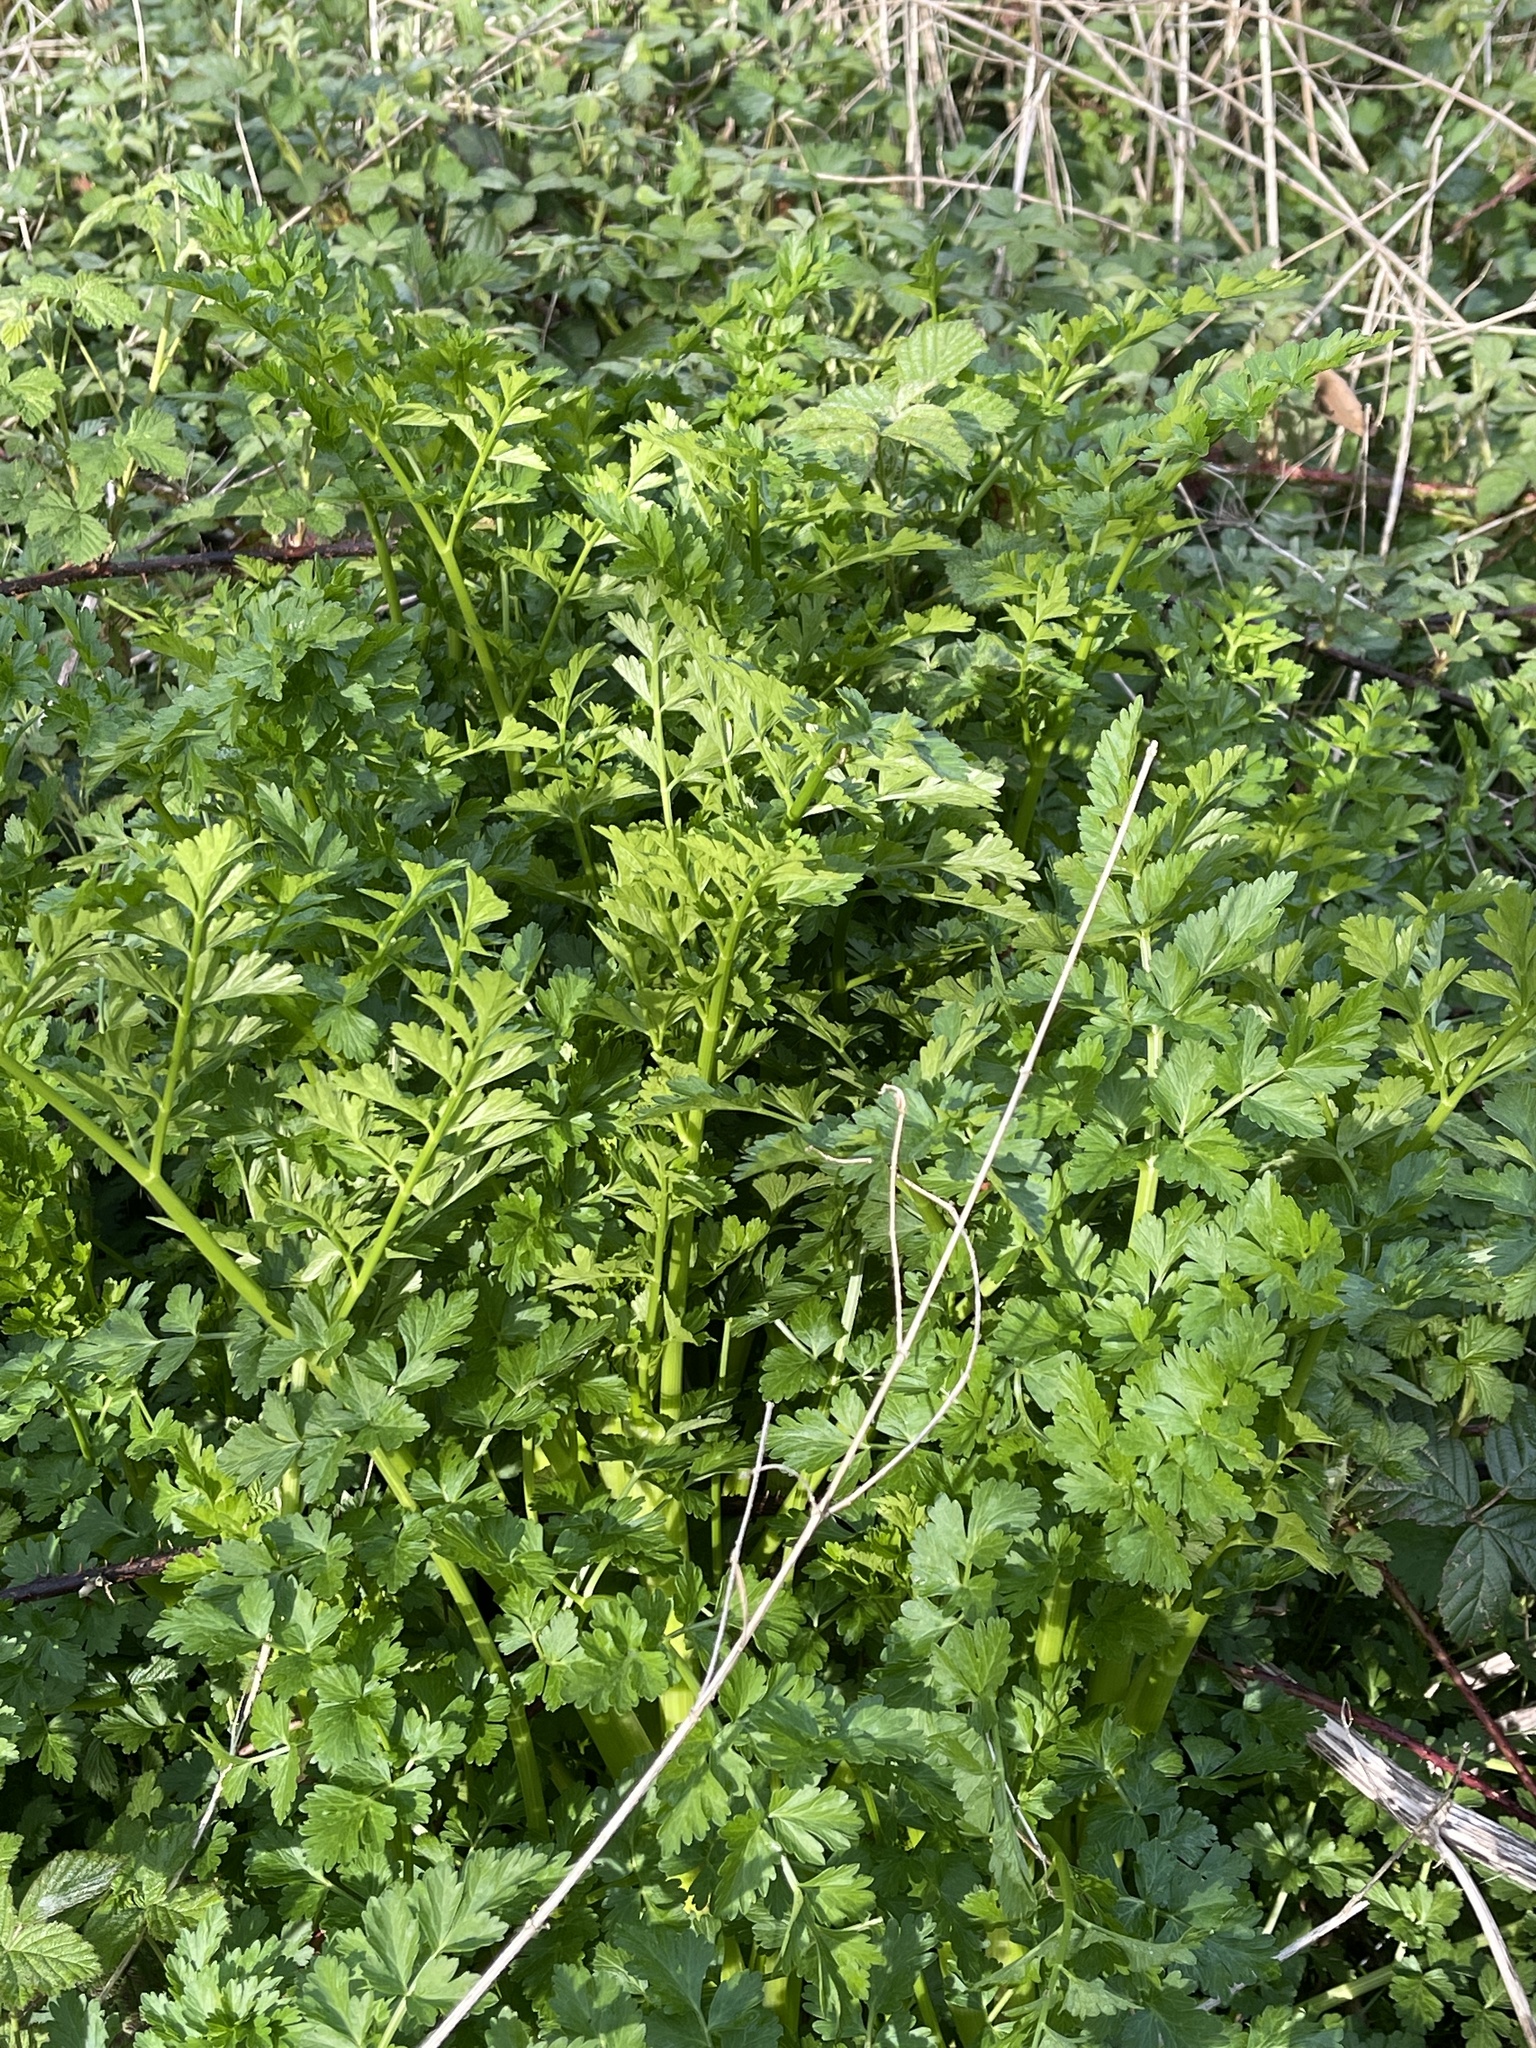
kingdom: Plantae
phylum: Tracheophyta
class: Magnoliopsida
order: Apiales
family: Apiaceae
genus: Oenanthe
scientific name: Oenanthe crocata
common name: Hemlock water-dropwort
